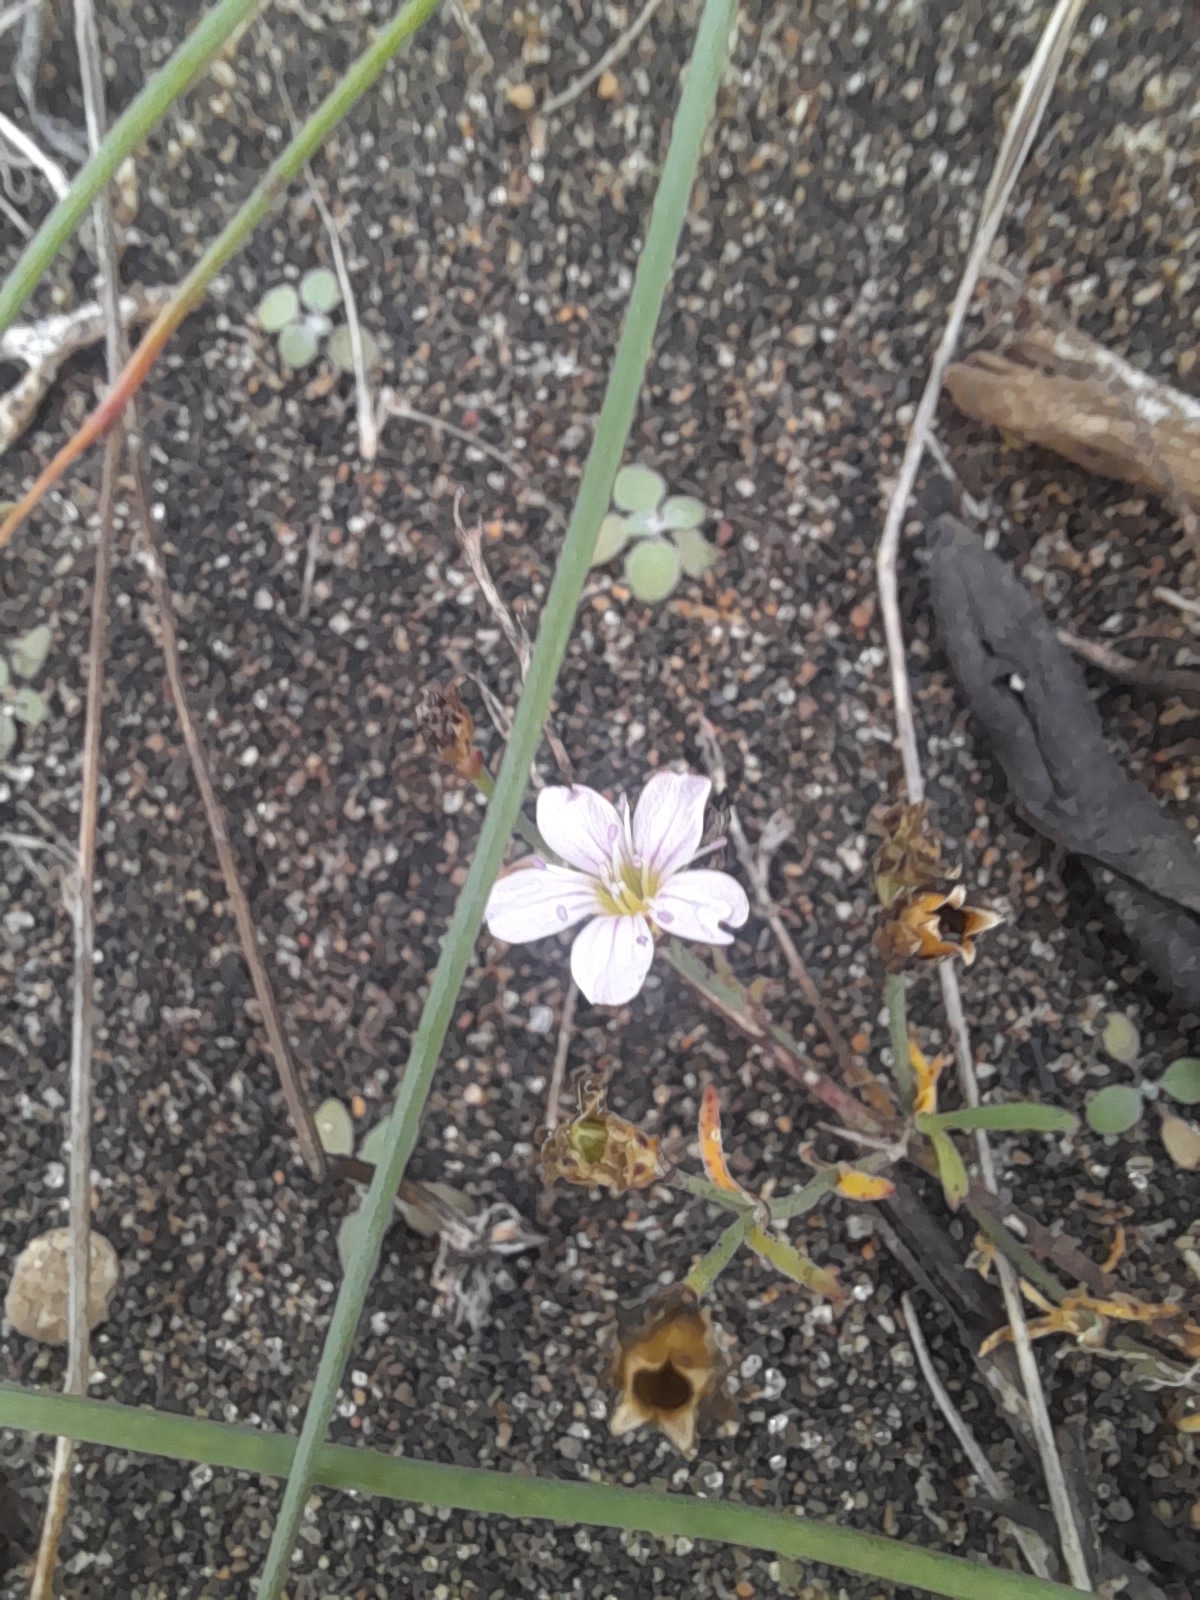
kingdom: Plantae
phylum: Tracheophyta
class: Magnoliopsida
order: Caryophyllales
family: Caryophyllaceae
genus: Petrorhagia
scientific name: Petrorhagia saxifraga
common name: Tunicflower
